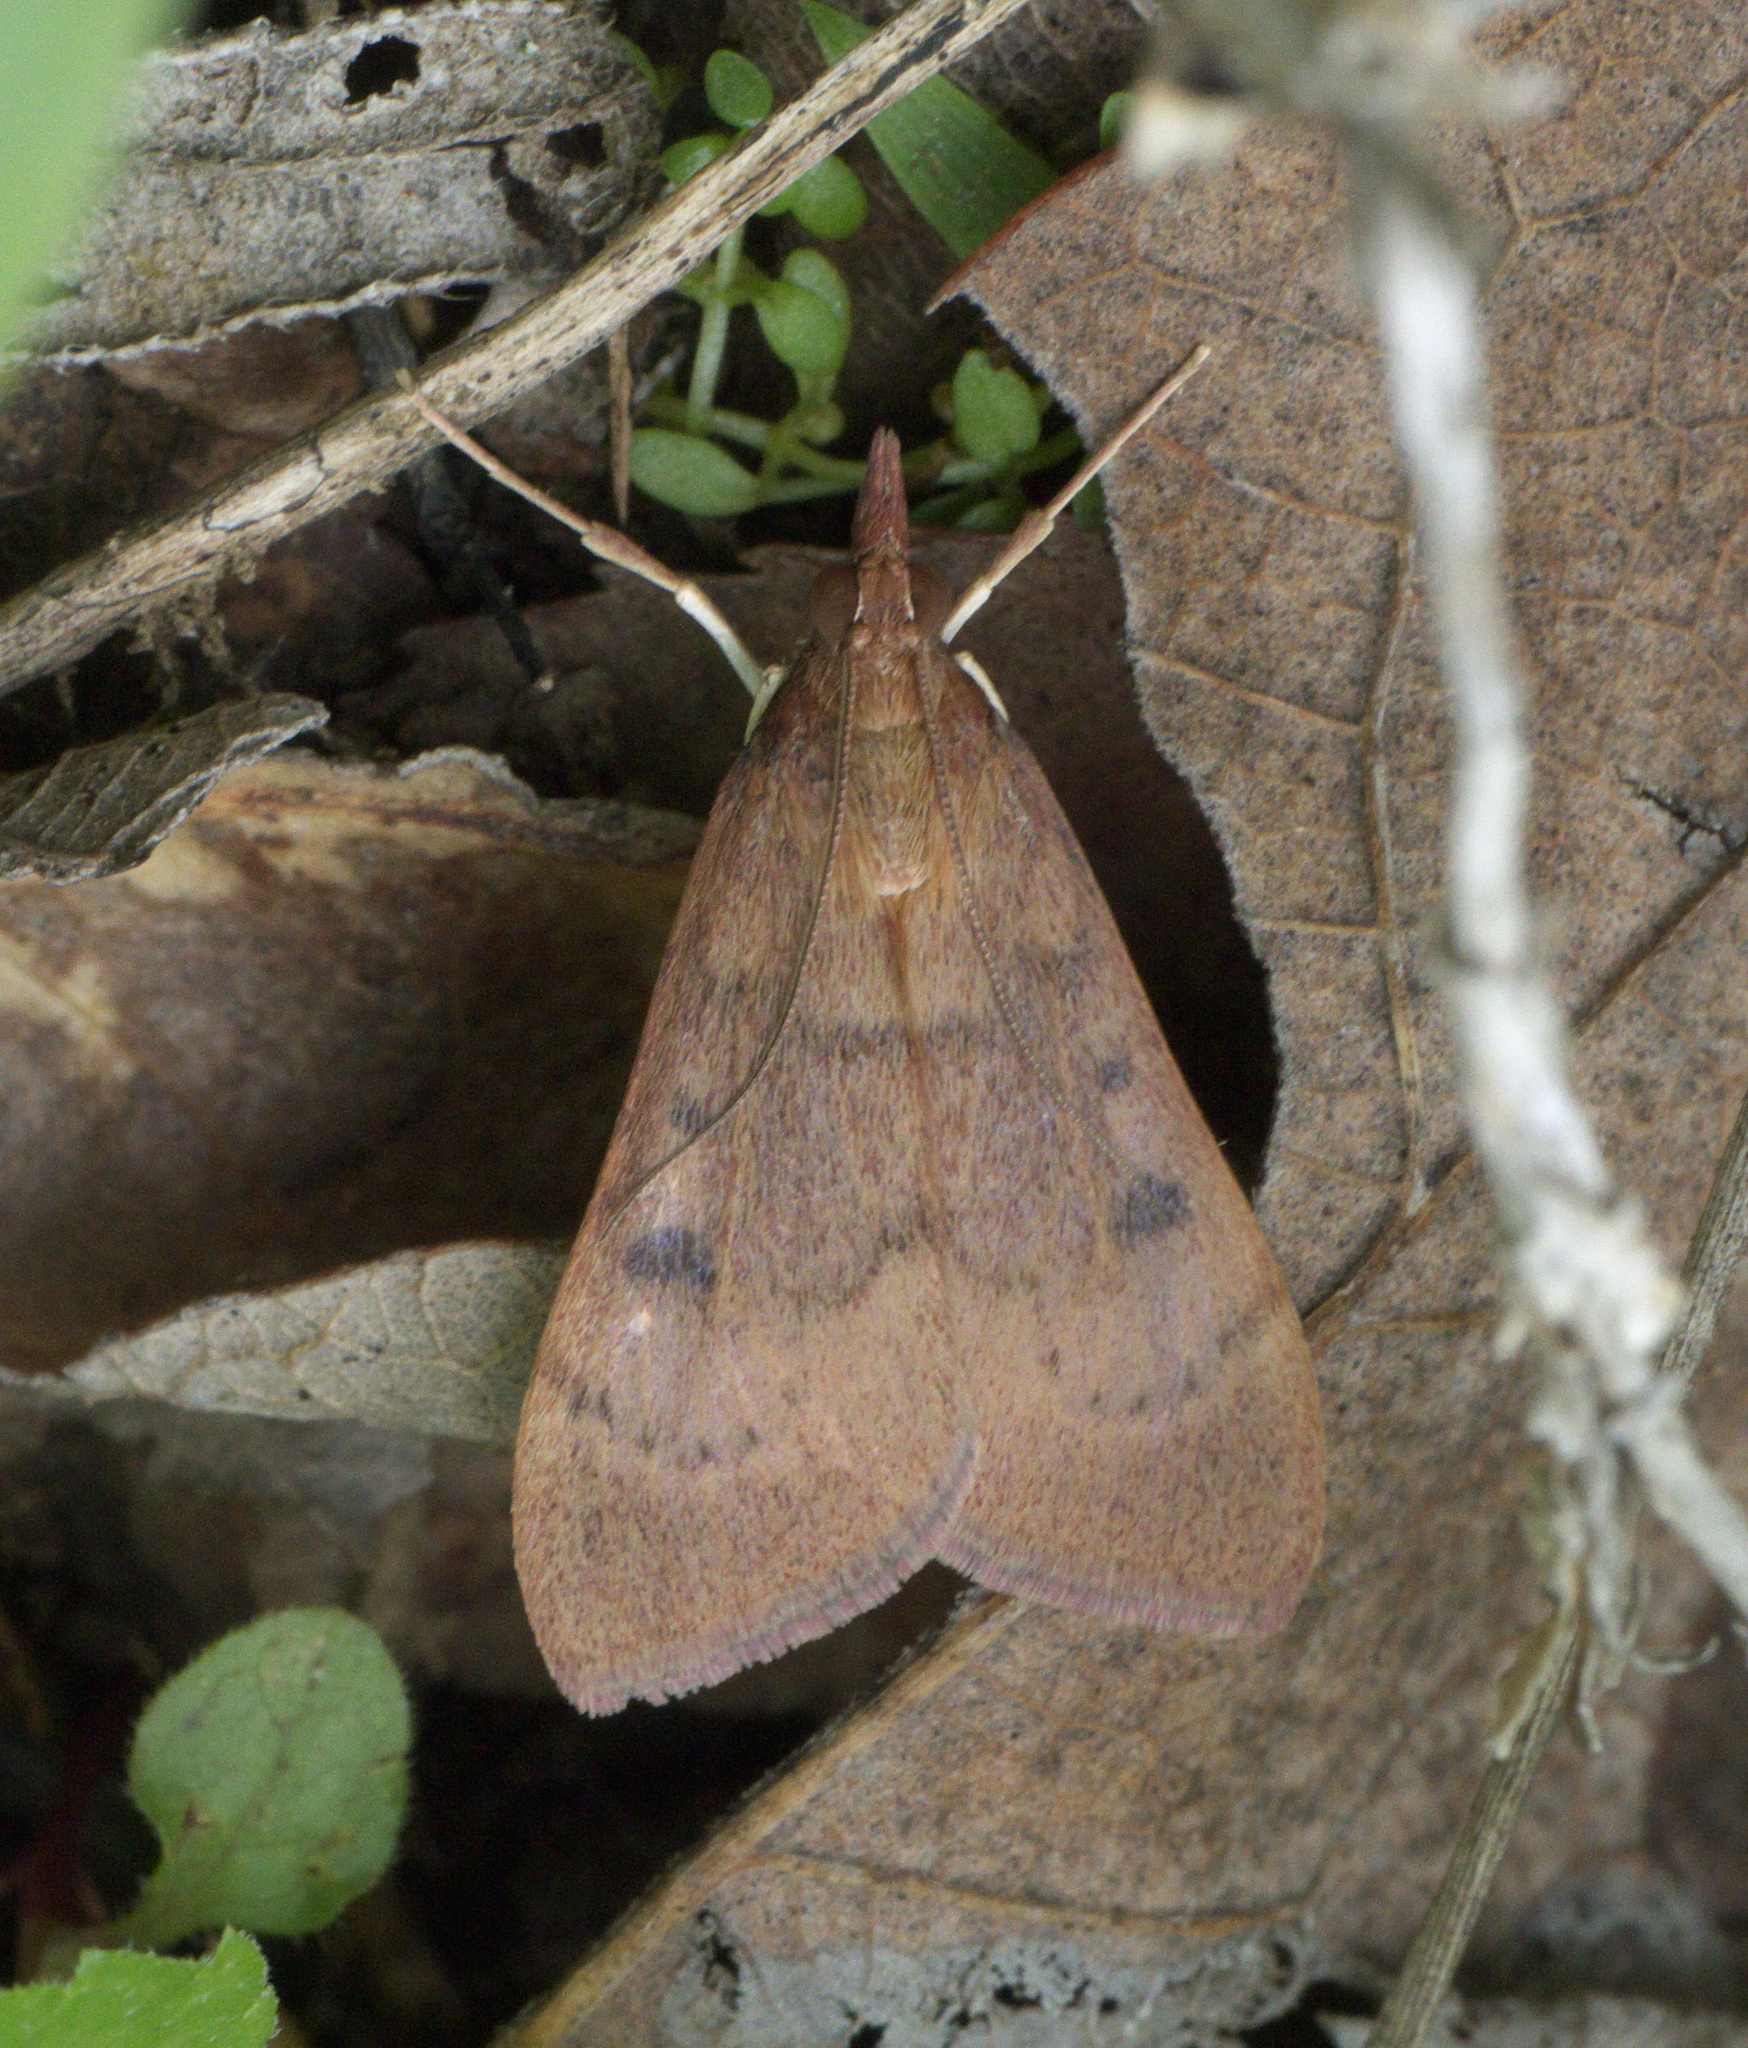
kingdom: Animalia
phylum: Arthropoda
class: Insecta
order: Lepidoptera
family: Crambidae
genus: Uresiphita
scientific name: Uresiphita reversalis
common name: Genista broom moth
